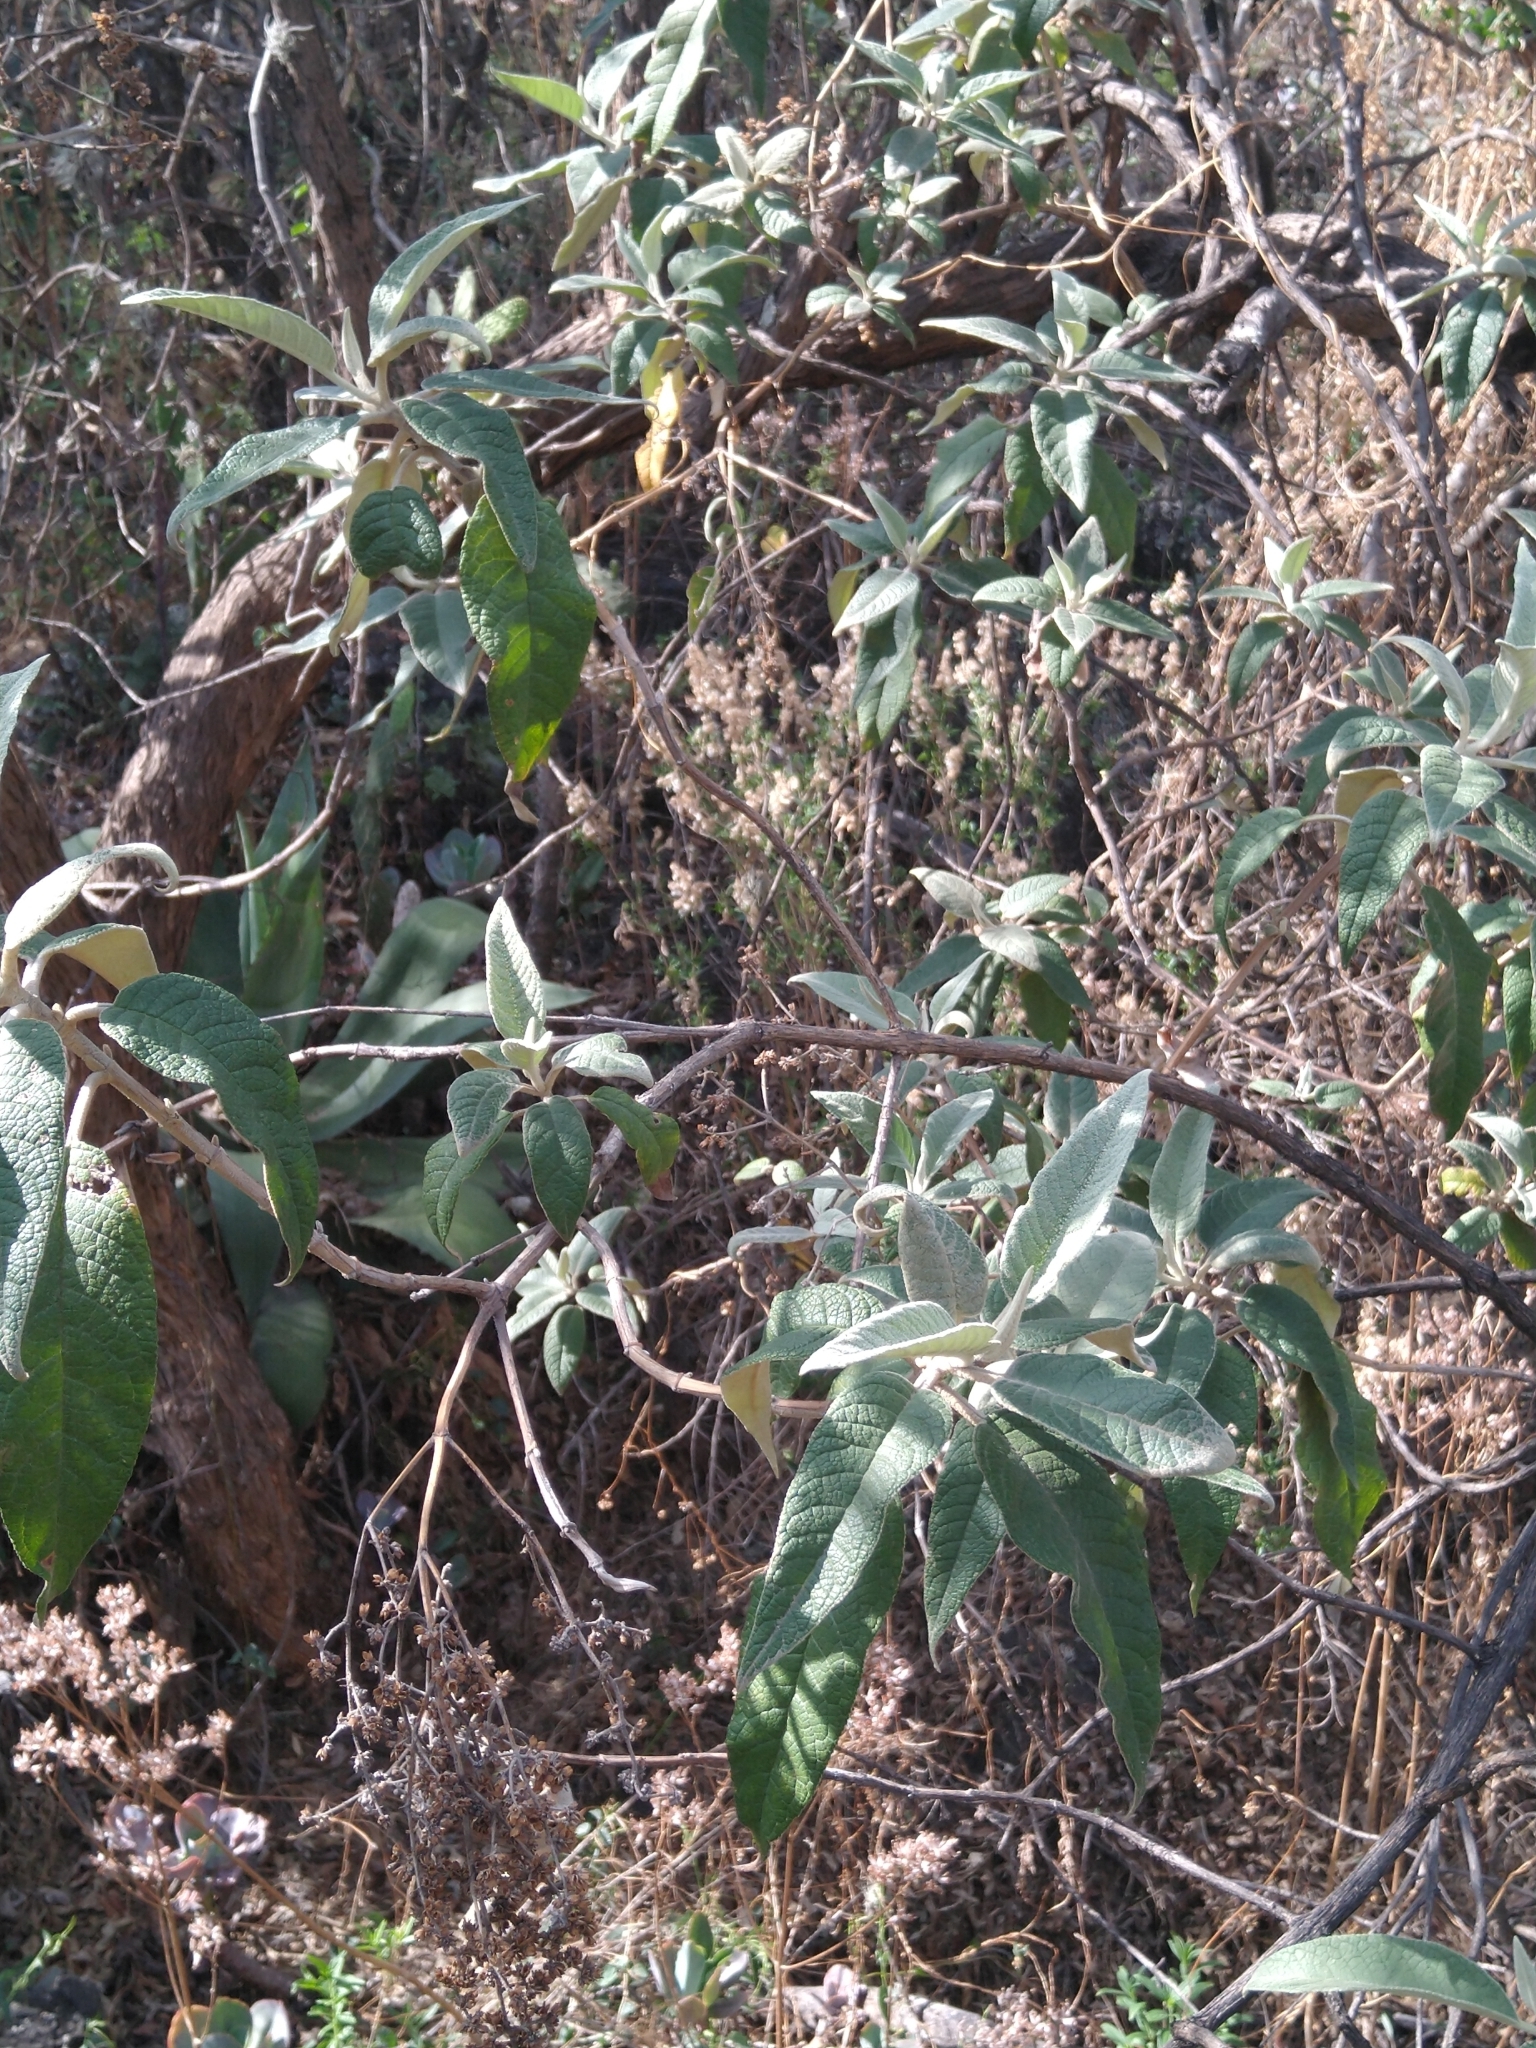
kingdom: Plantae
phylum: Tracheophyta
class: Magnoliopsida
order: Lamiales
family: Scrophulariaceae
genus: Buddleja
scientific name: Buddleja cordata
